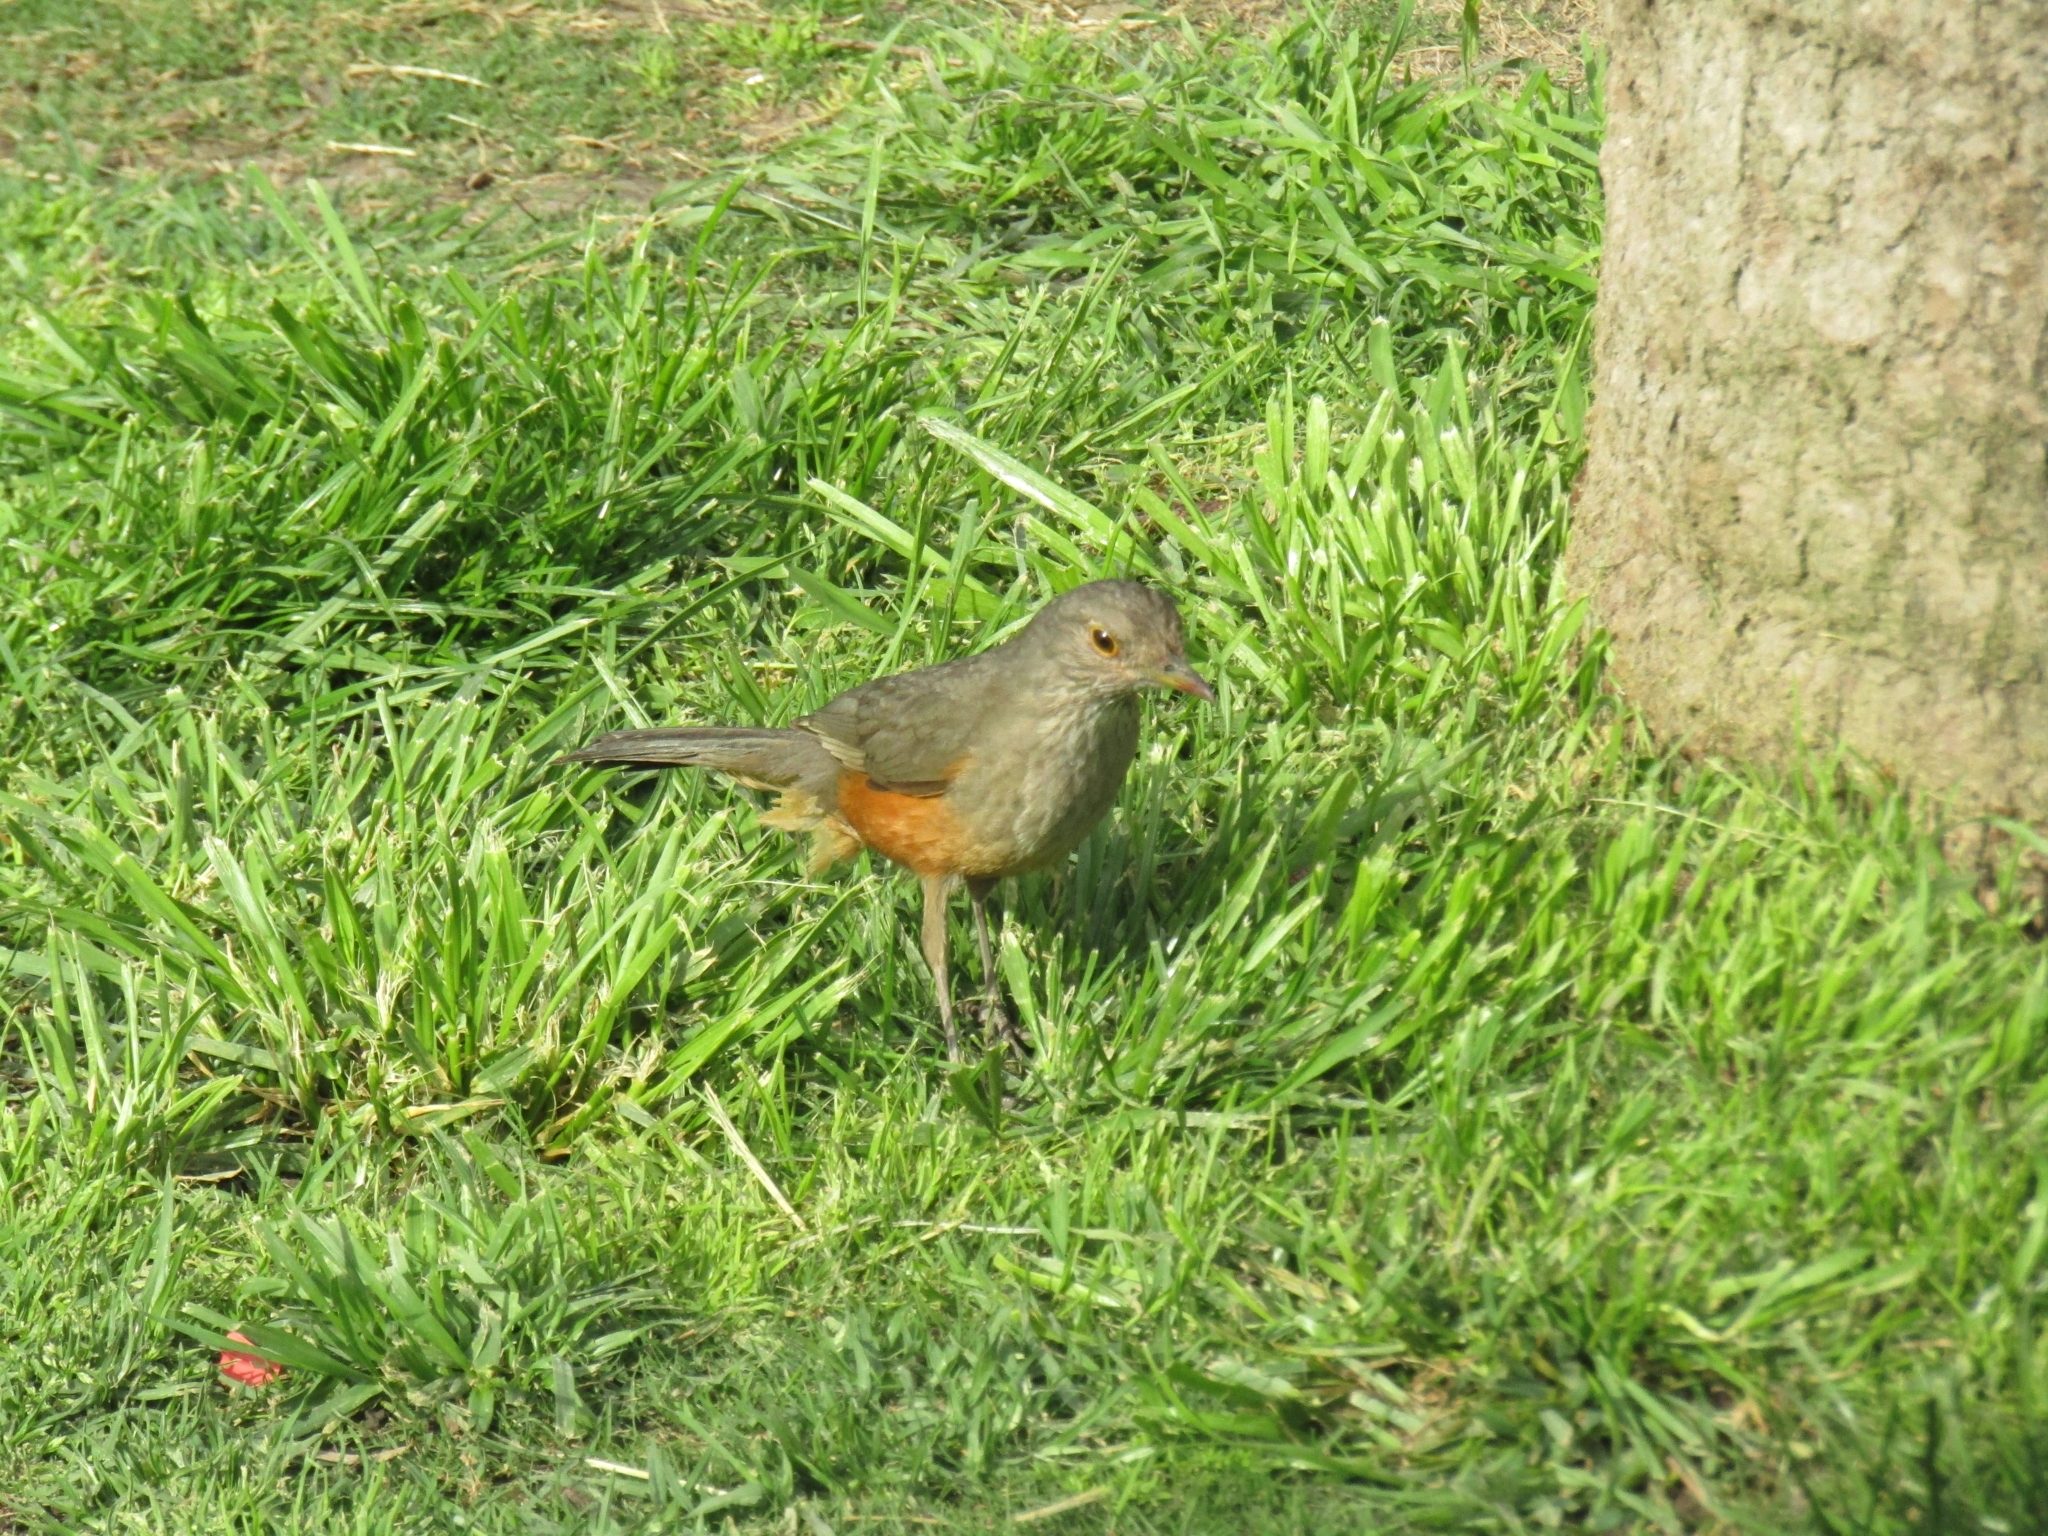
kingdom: Animalia
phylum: Chordata
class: Aves
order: Passeriformes
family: Turdidae
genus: Turdus
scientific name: Turdus rufiventris
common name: Rufous-bellied thrush
